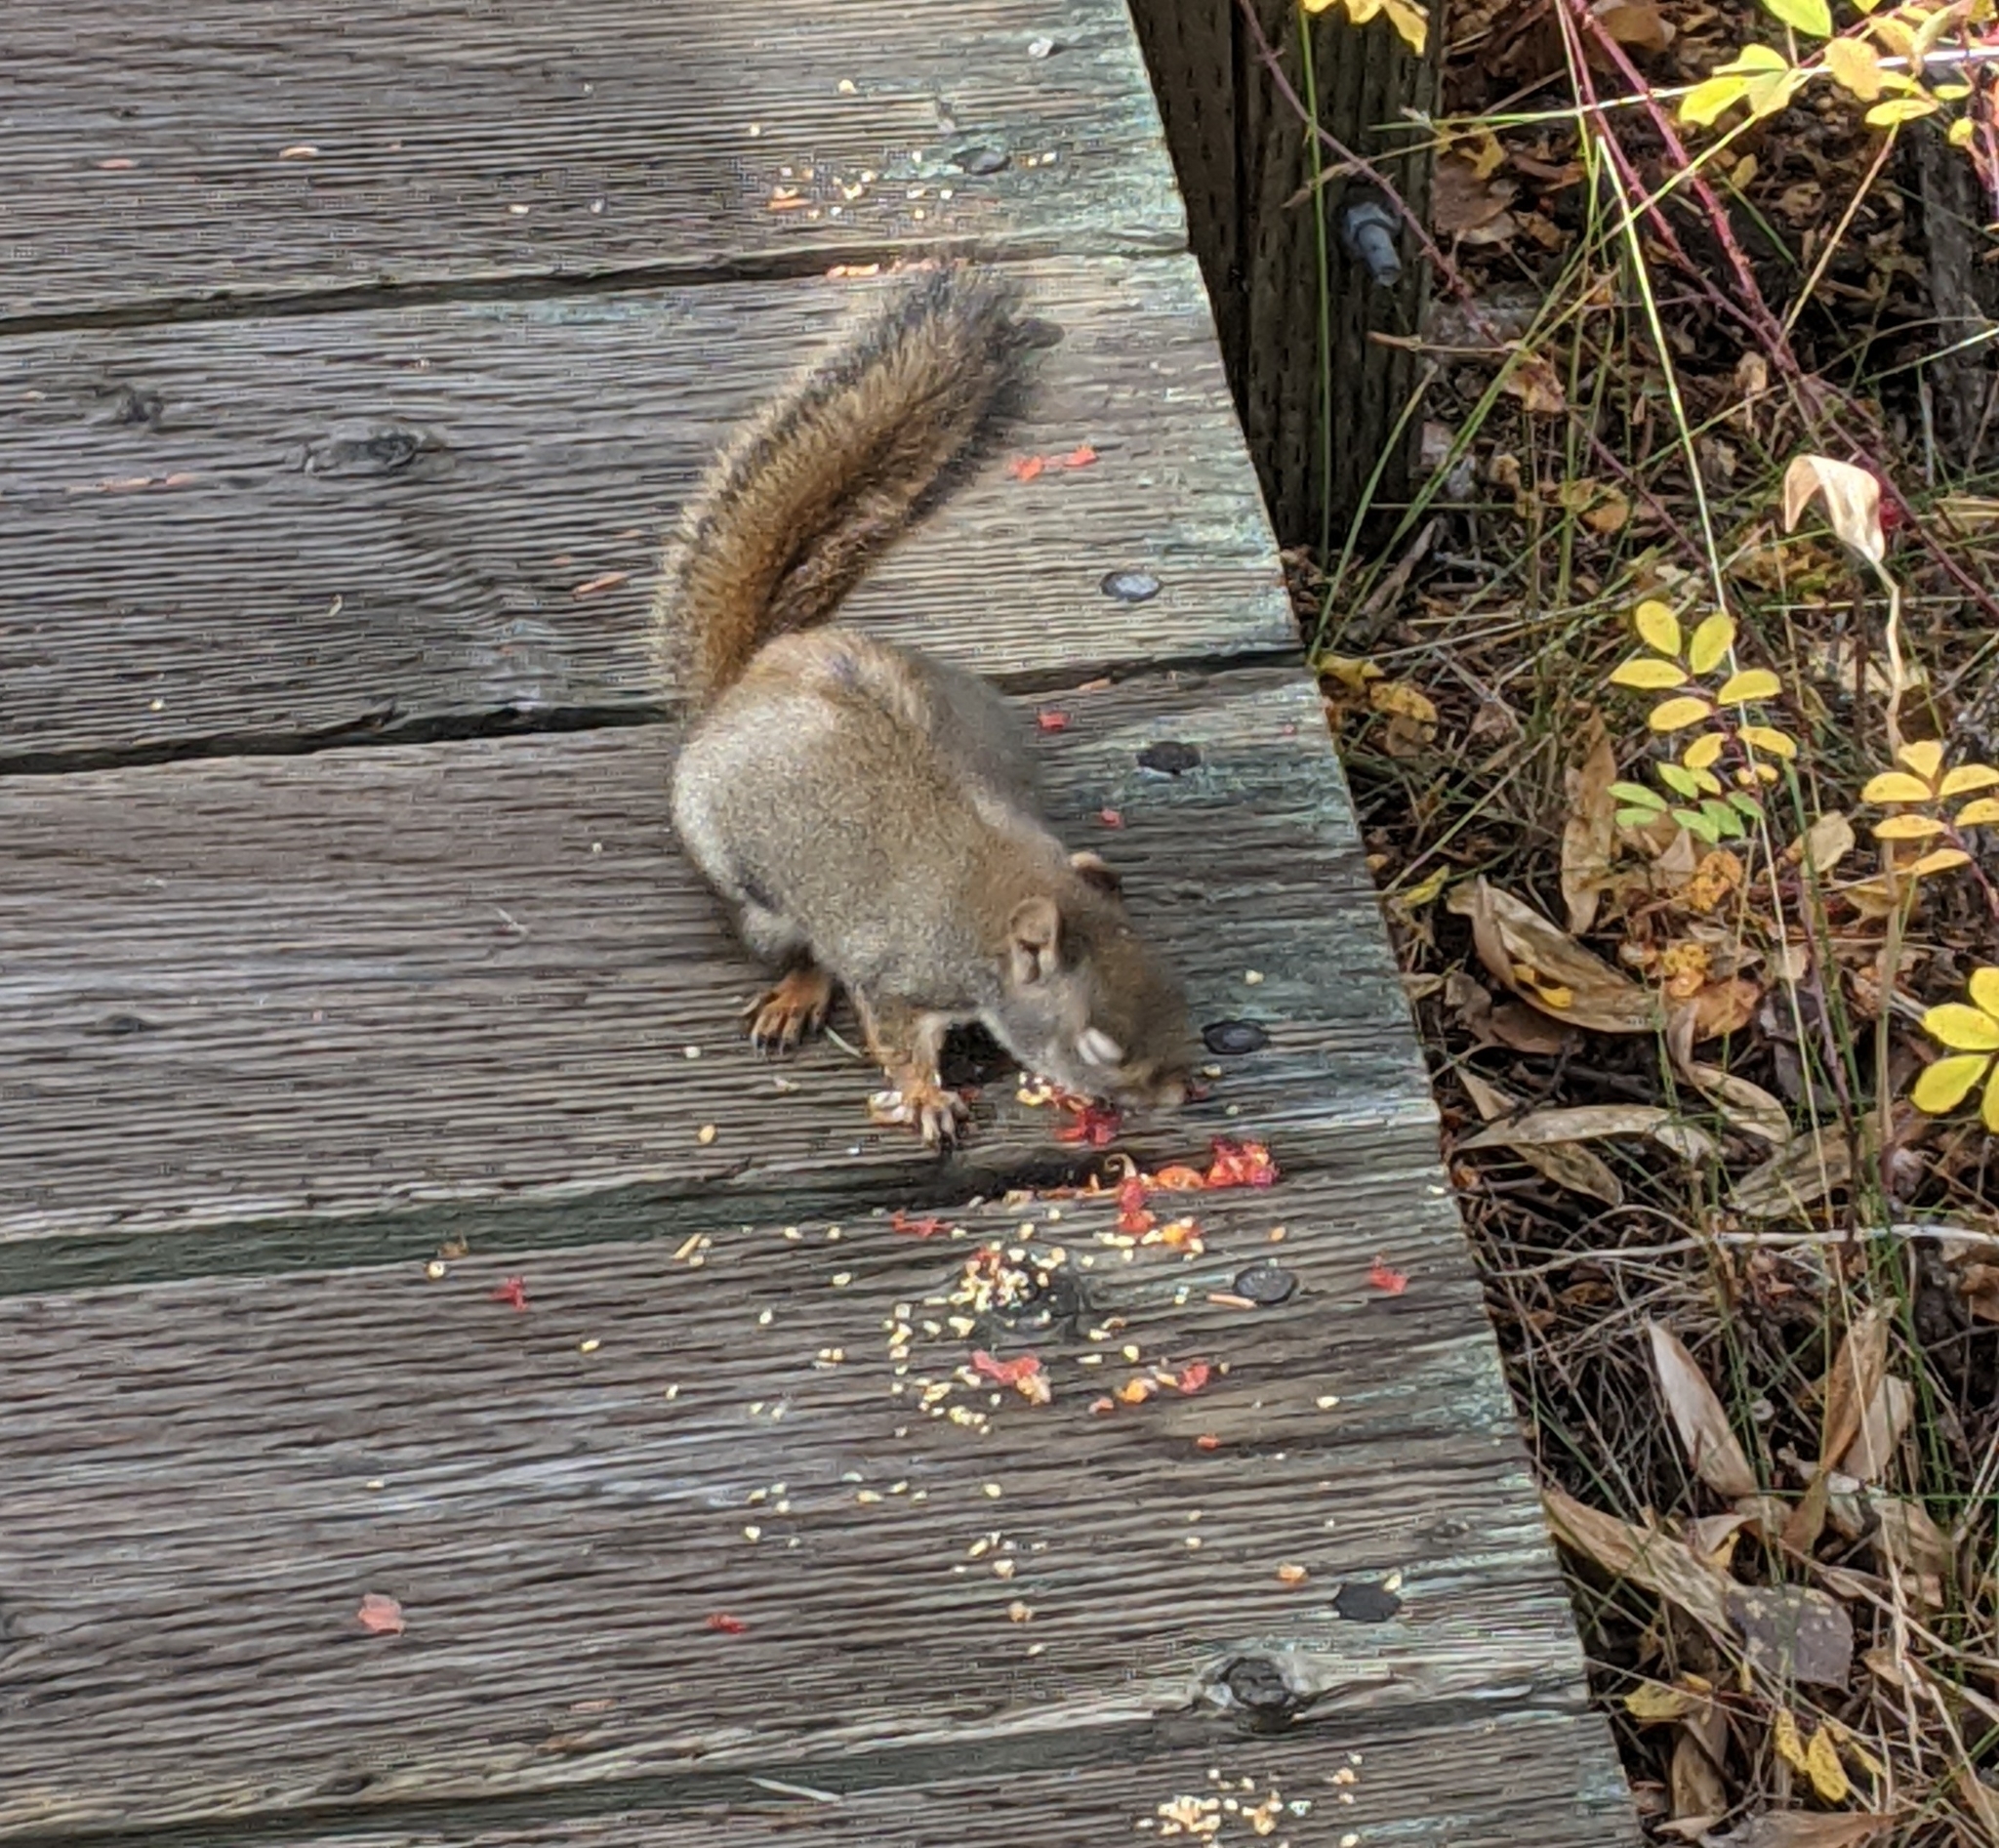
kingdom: Animalia
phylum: Chordata
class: Mammalia
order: Rodentia
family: Sciuridae
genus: Tamiasciurus
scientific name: Tamiasciurus hudsonicus
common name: Red squirrel
